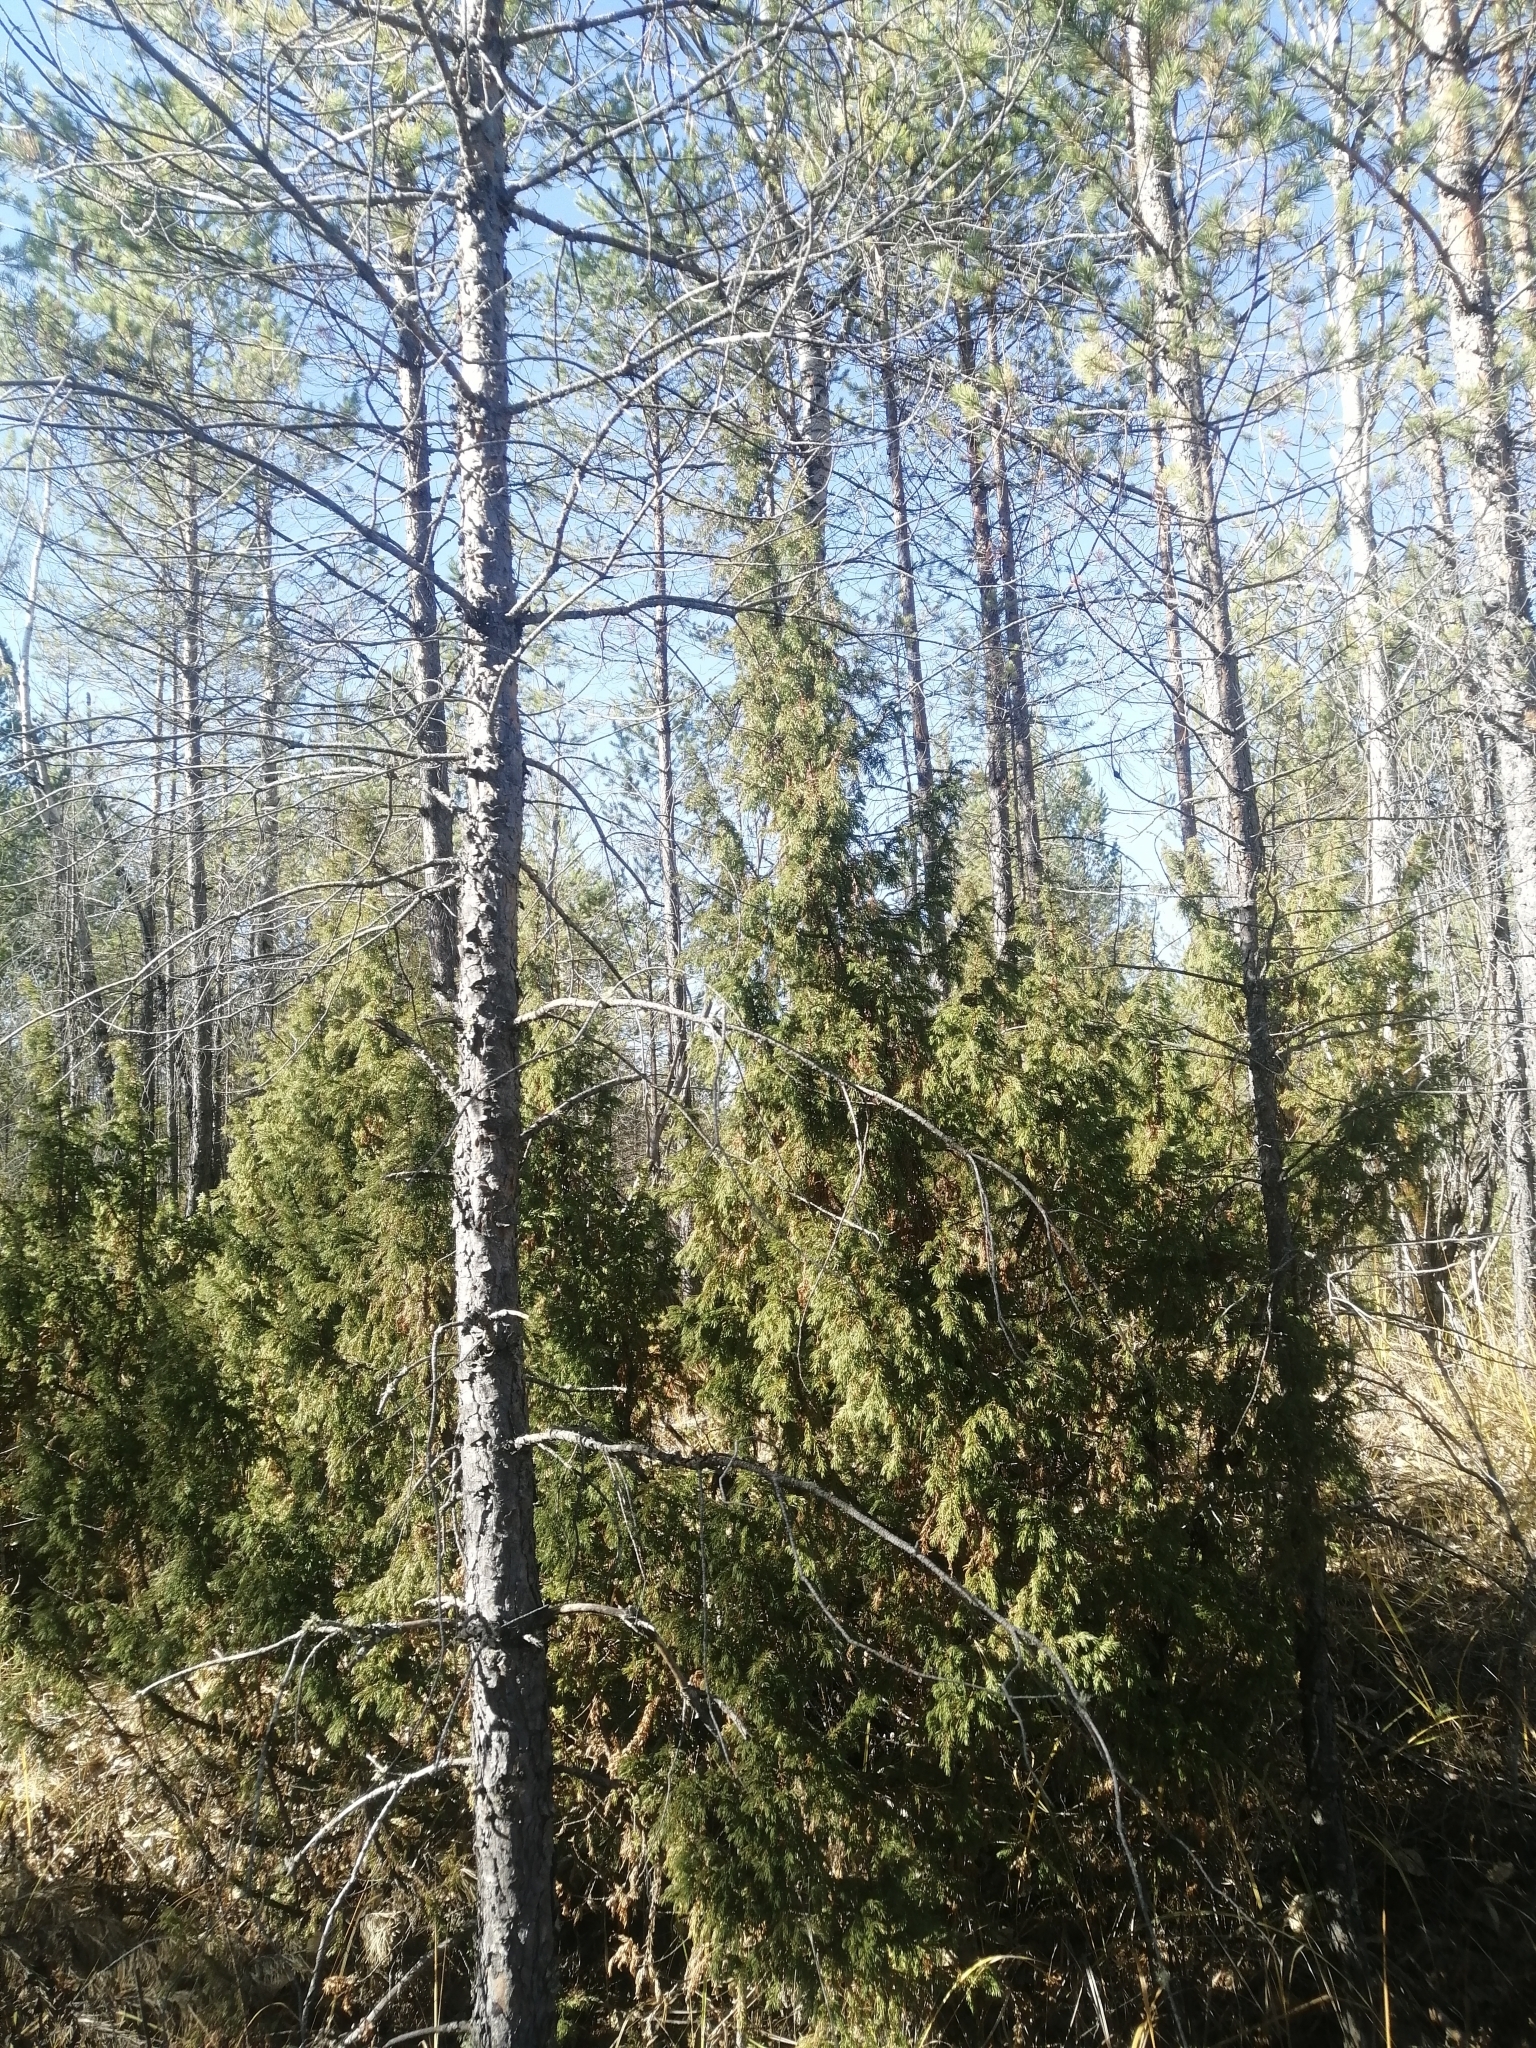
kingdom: Plantae
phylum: Tracheophyta
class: Pinopsida
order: Pinales
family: Cupressaceae
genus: Juniperus
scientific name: Juniperus communis
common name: Common juniper
